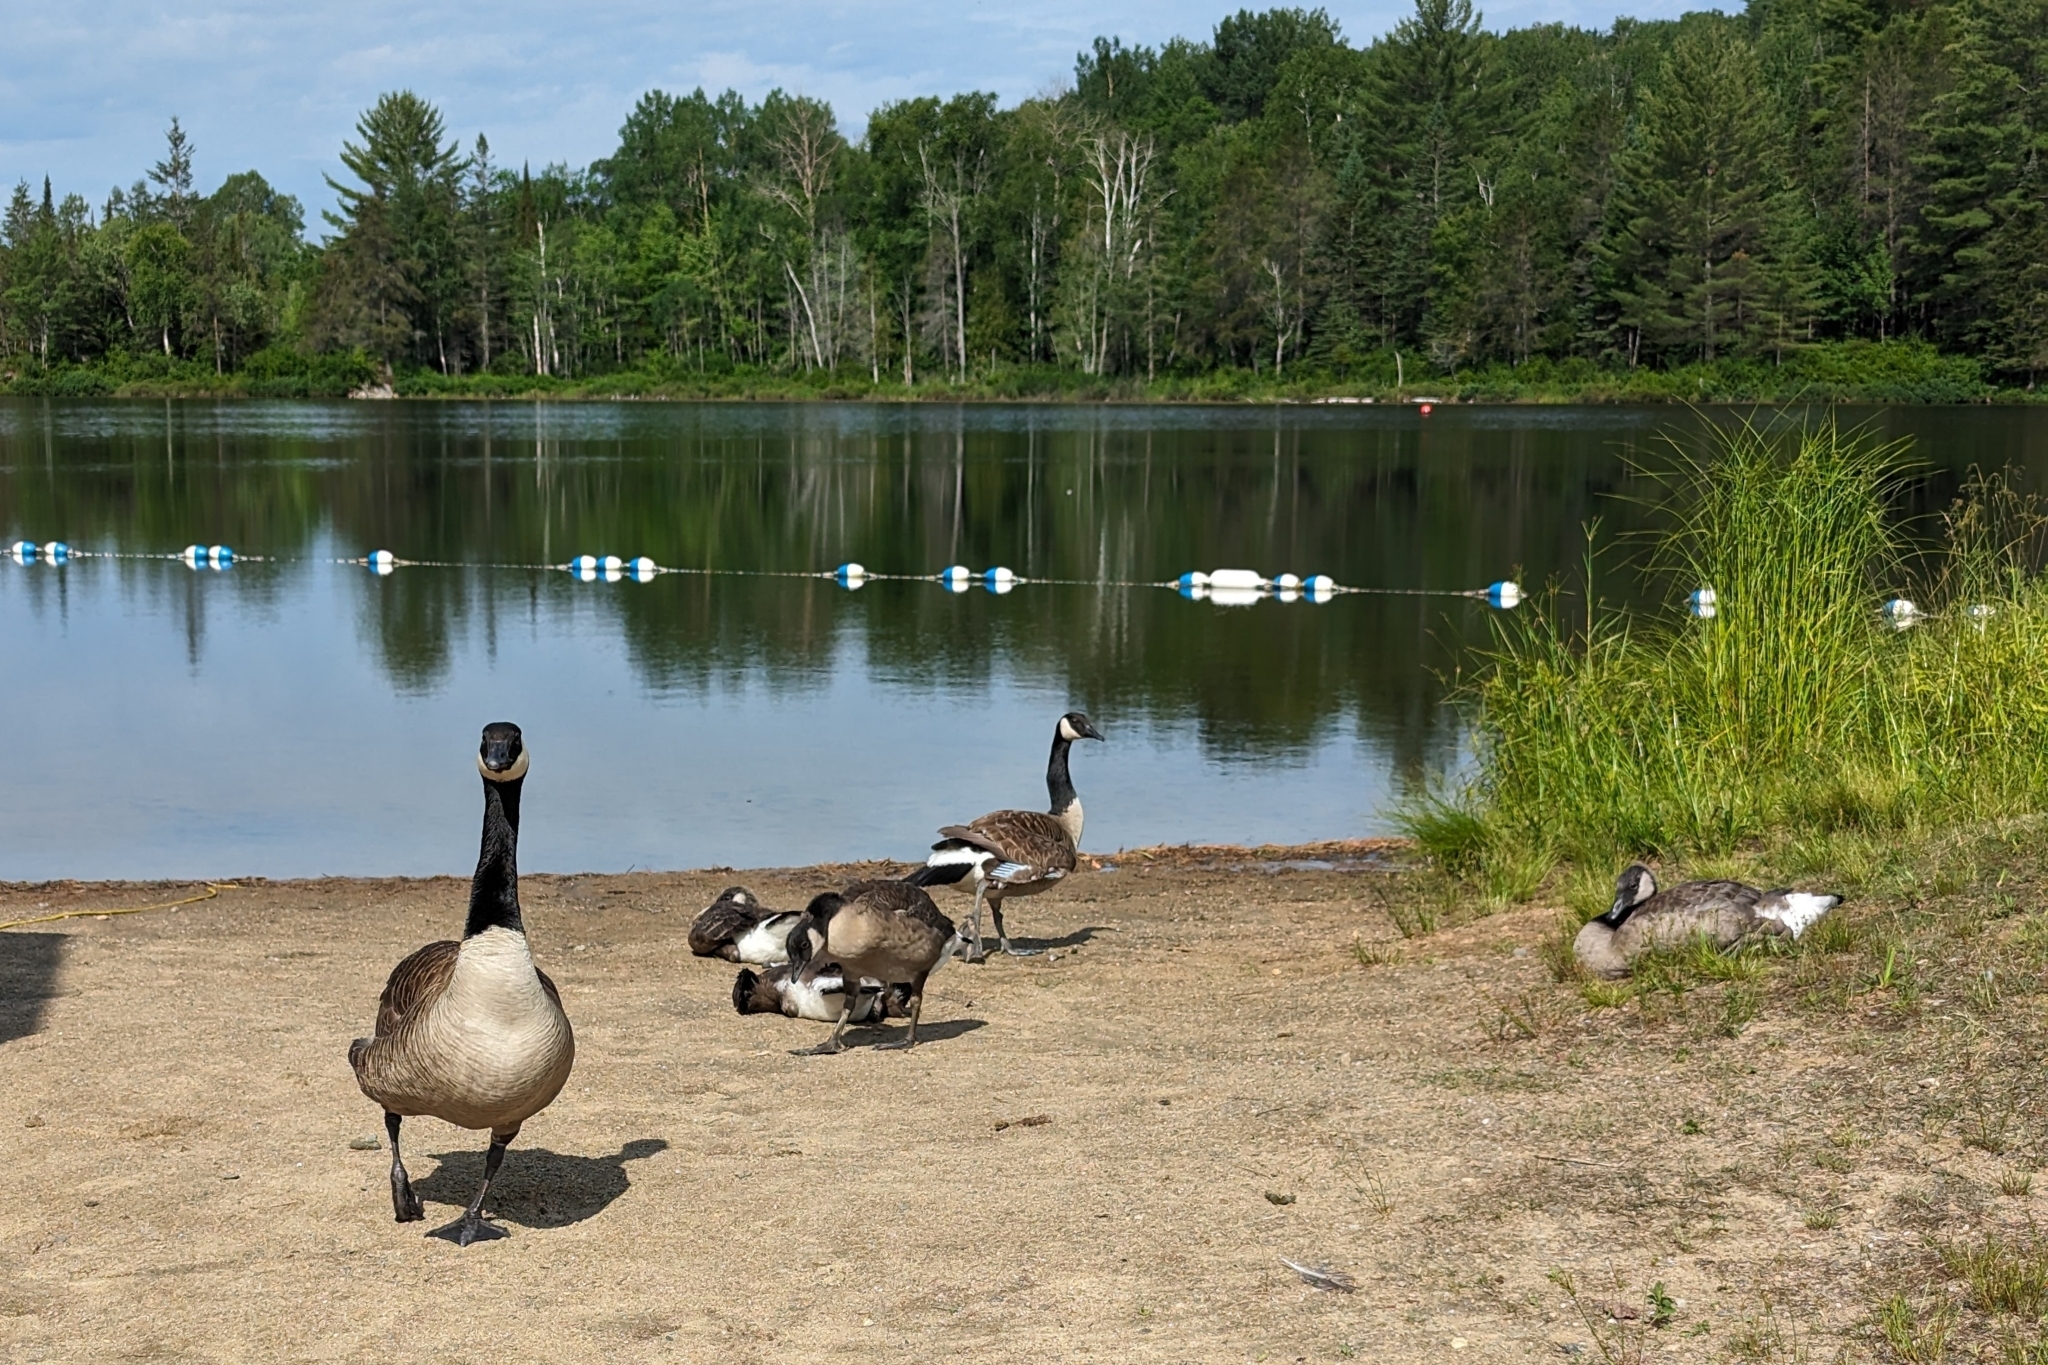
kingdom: Animalia
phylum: Chordata
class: Aves
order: Anseriformes
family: Anatidae
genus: Branta
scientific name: Branta canadensis
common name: Canada goose
